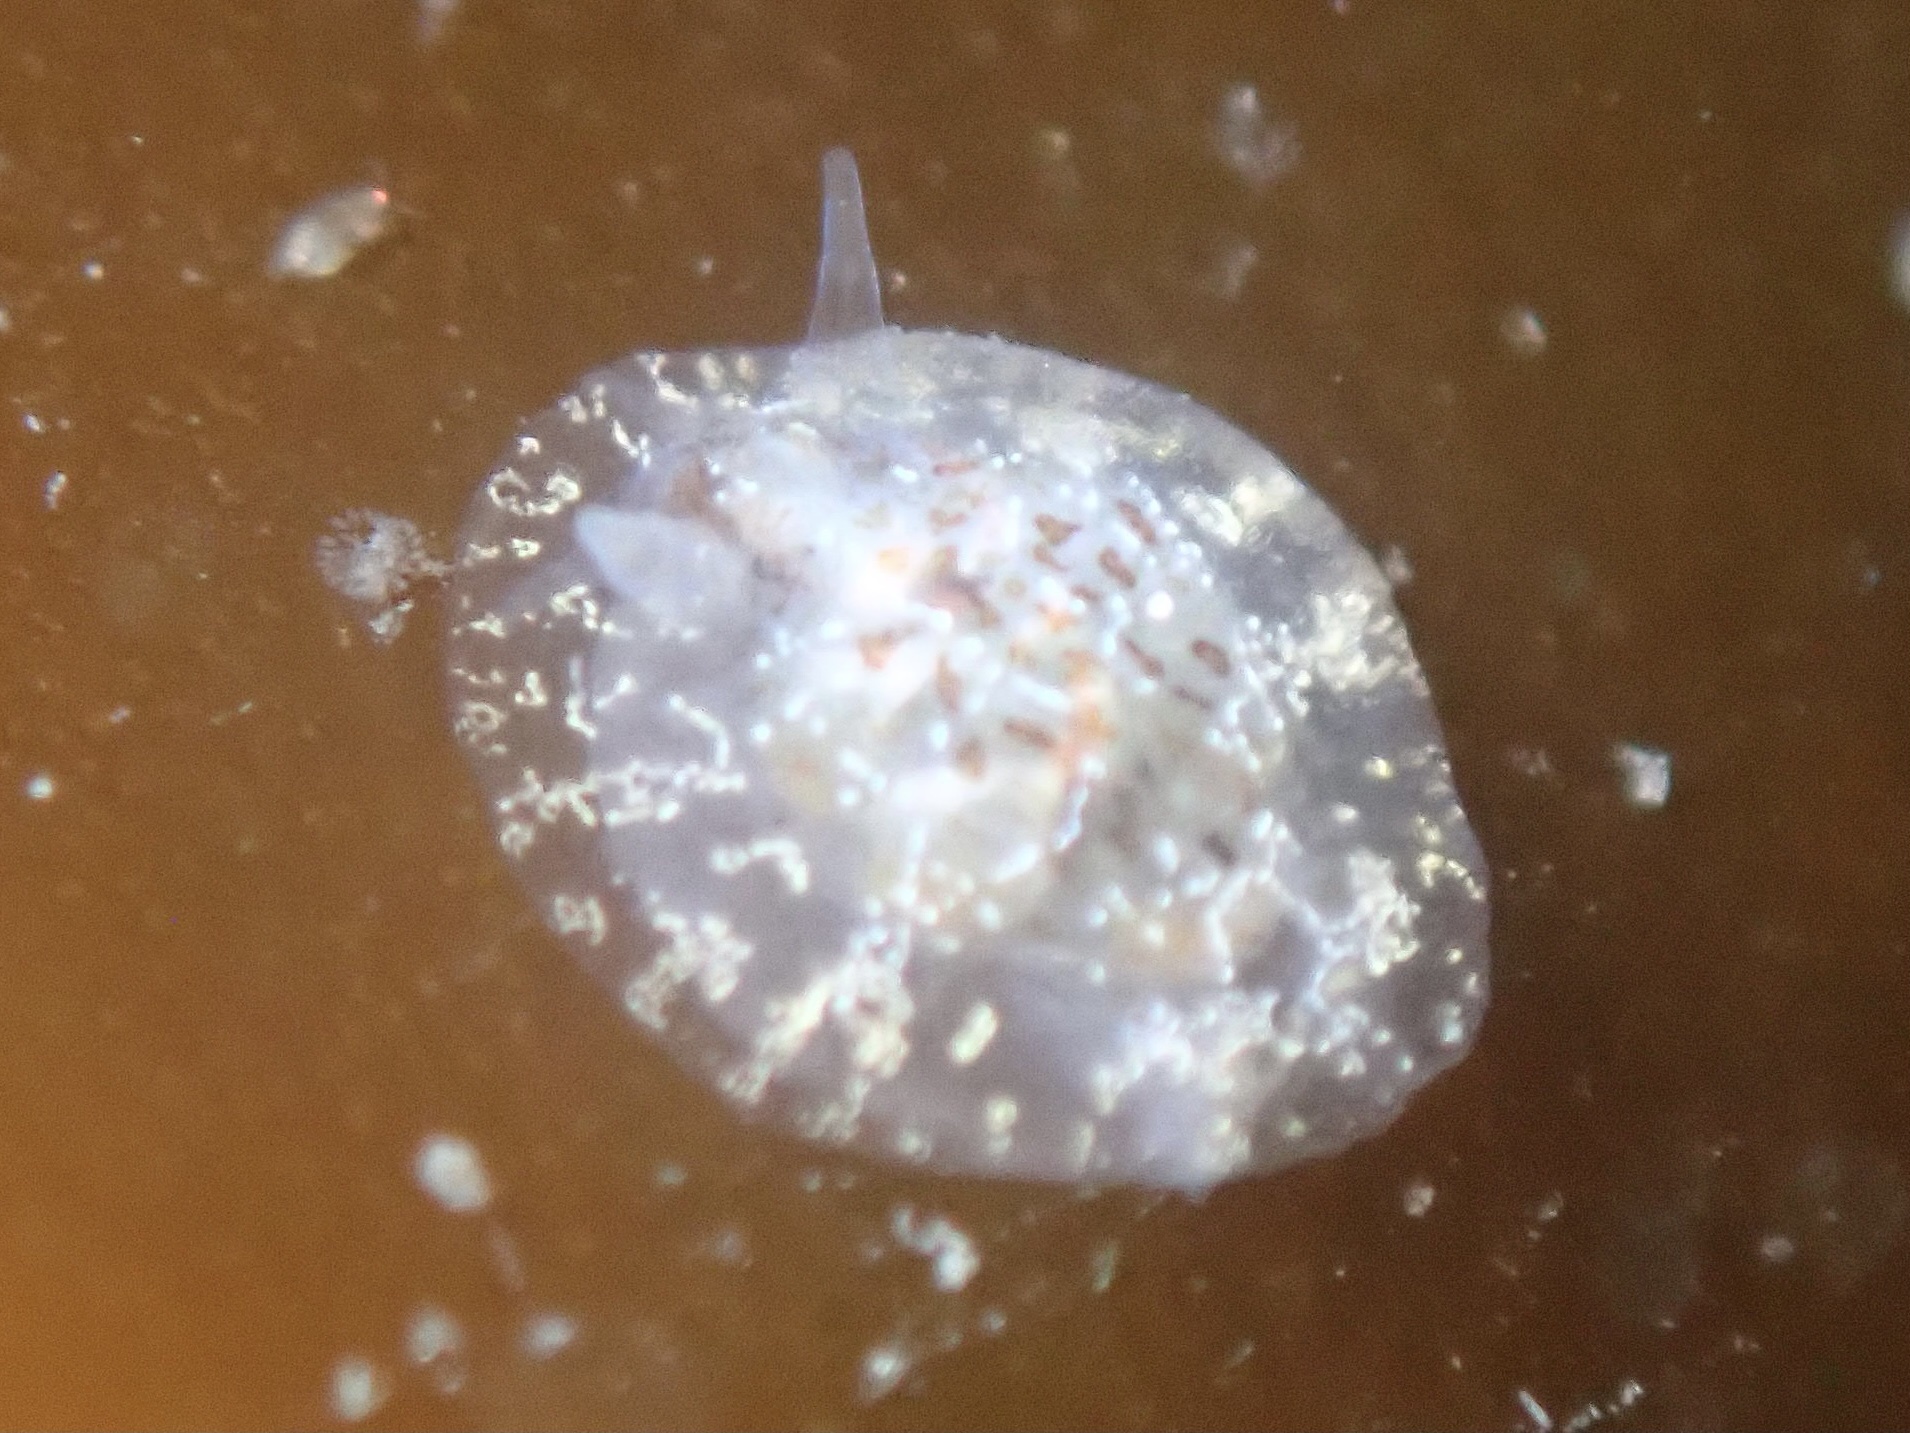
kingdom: Animalia
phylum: Mollusca
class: Gastropoda
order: Nudibranchia
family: Corambidae
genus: Corambe
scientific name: Corambe steinbergae
